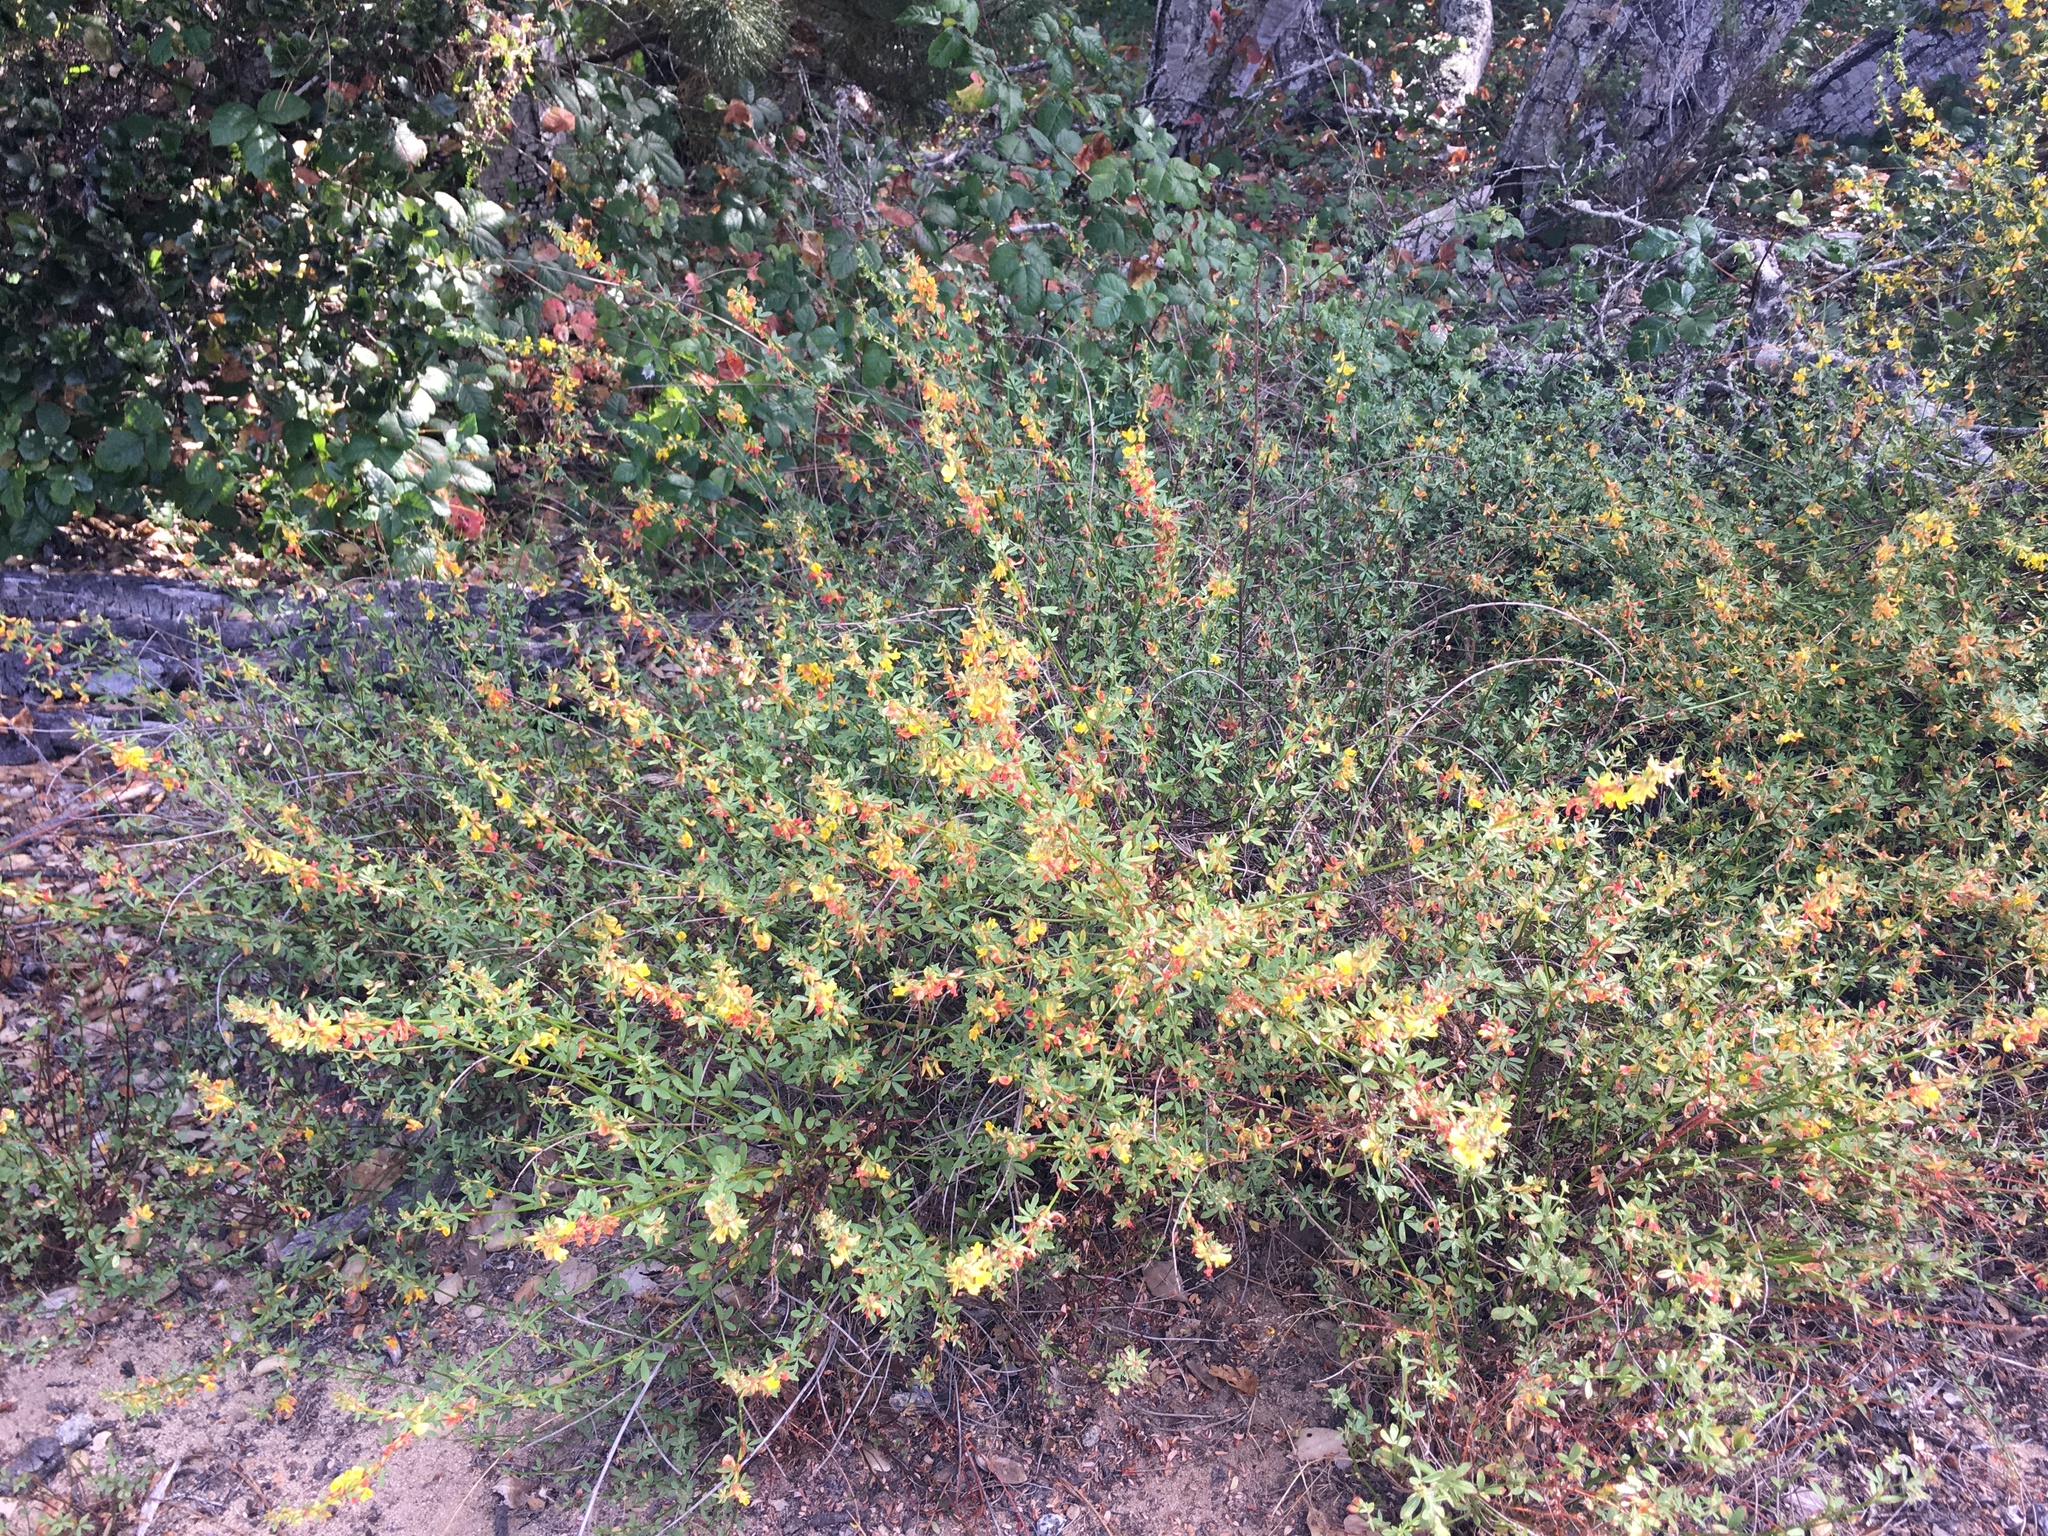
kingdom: Plantae
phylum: Tracheophyta
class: Magnoliopsida
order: Fabales
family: Fabaceae
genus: Acmispon
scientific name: Acmispon glaber
